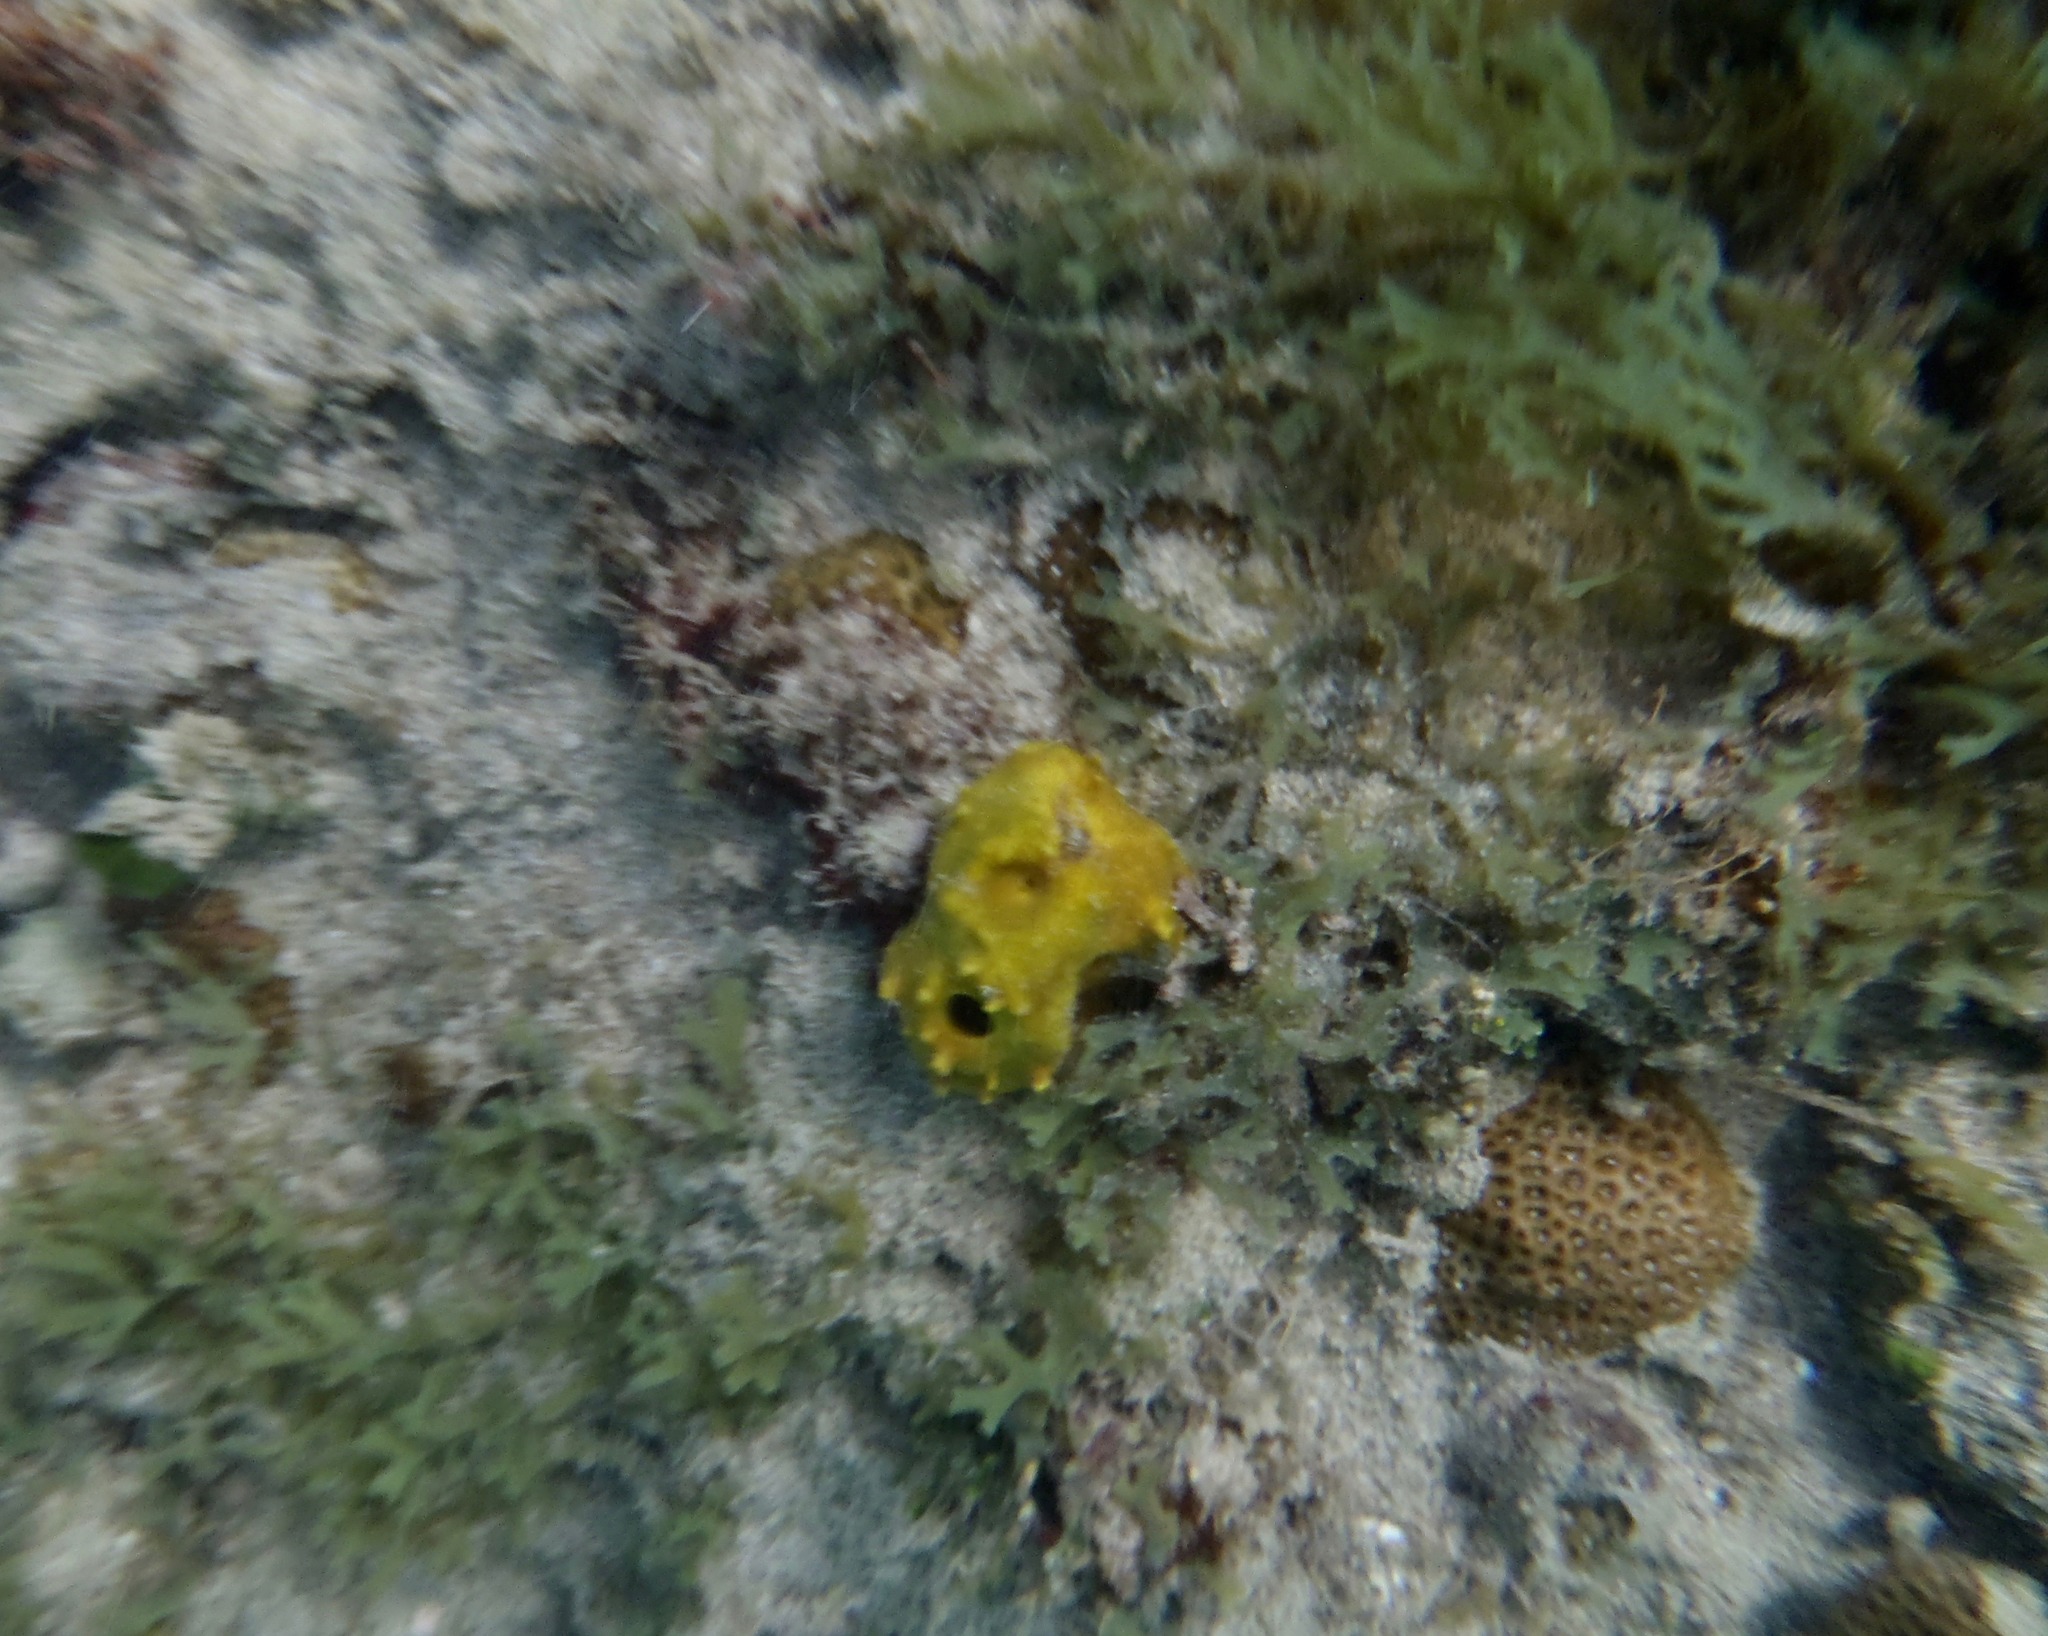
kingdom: Animalia
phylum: Porifera
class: Demospongiae
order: Verongiida
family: Aplysinidae
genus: Aplysina
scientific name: Aplysina insularis
